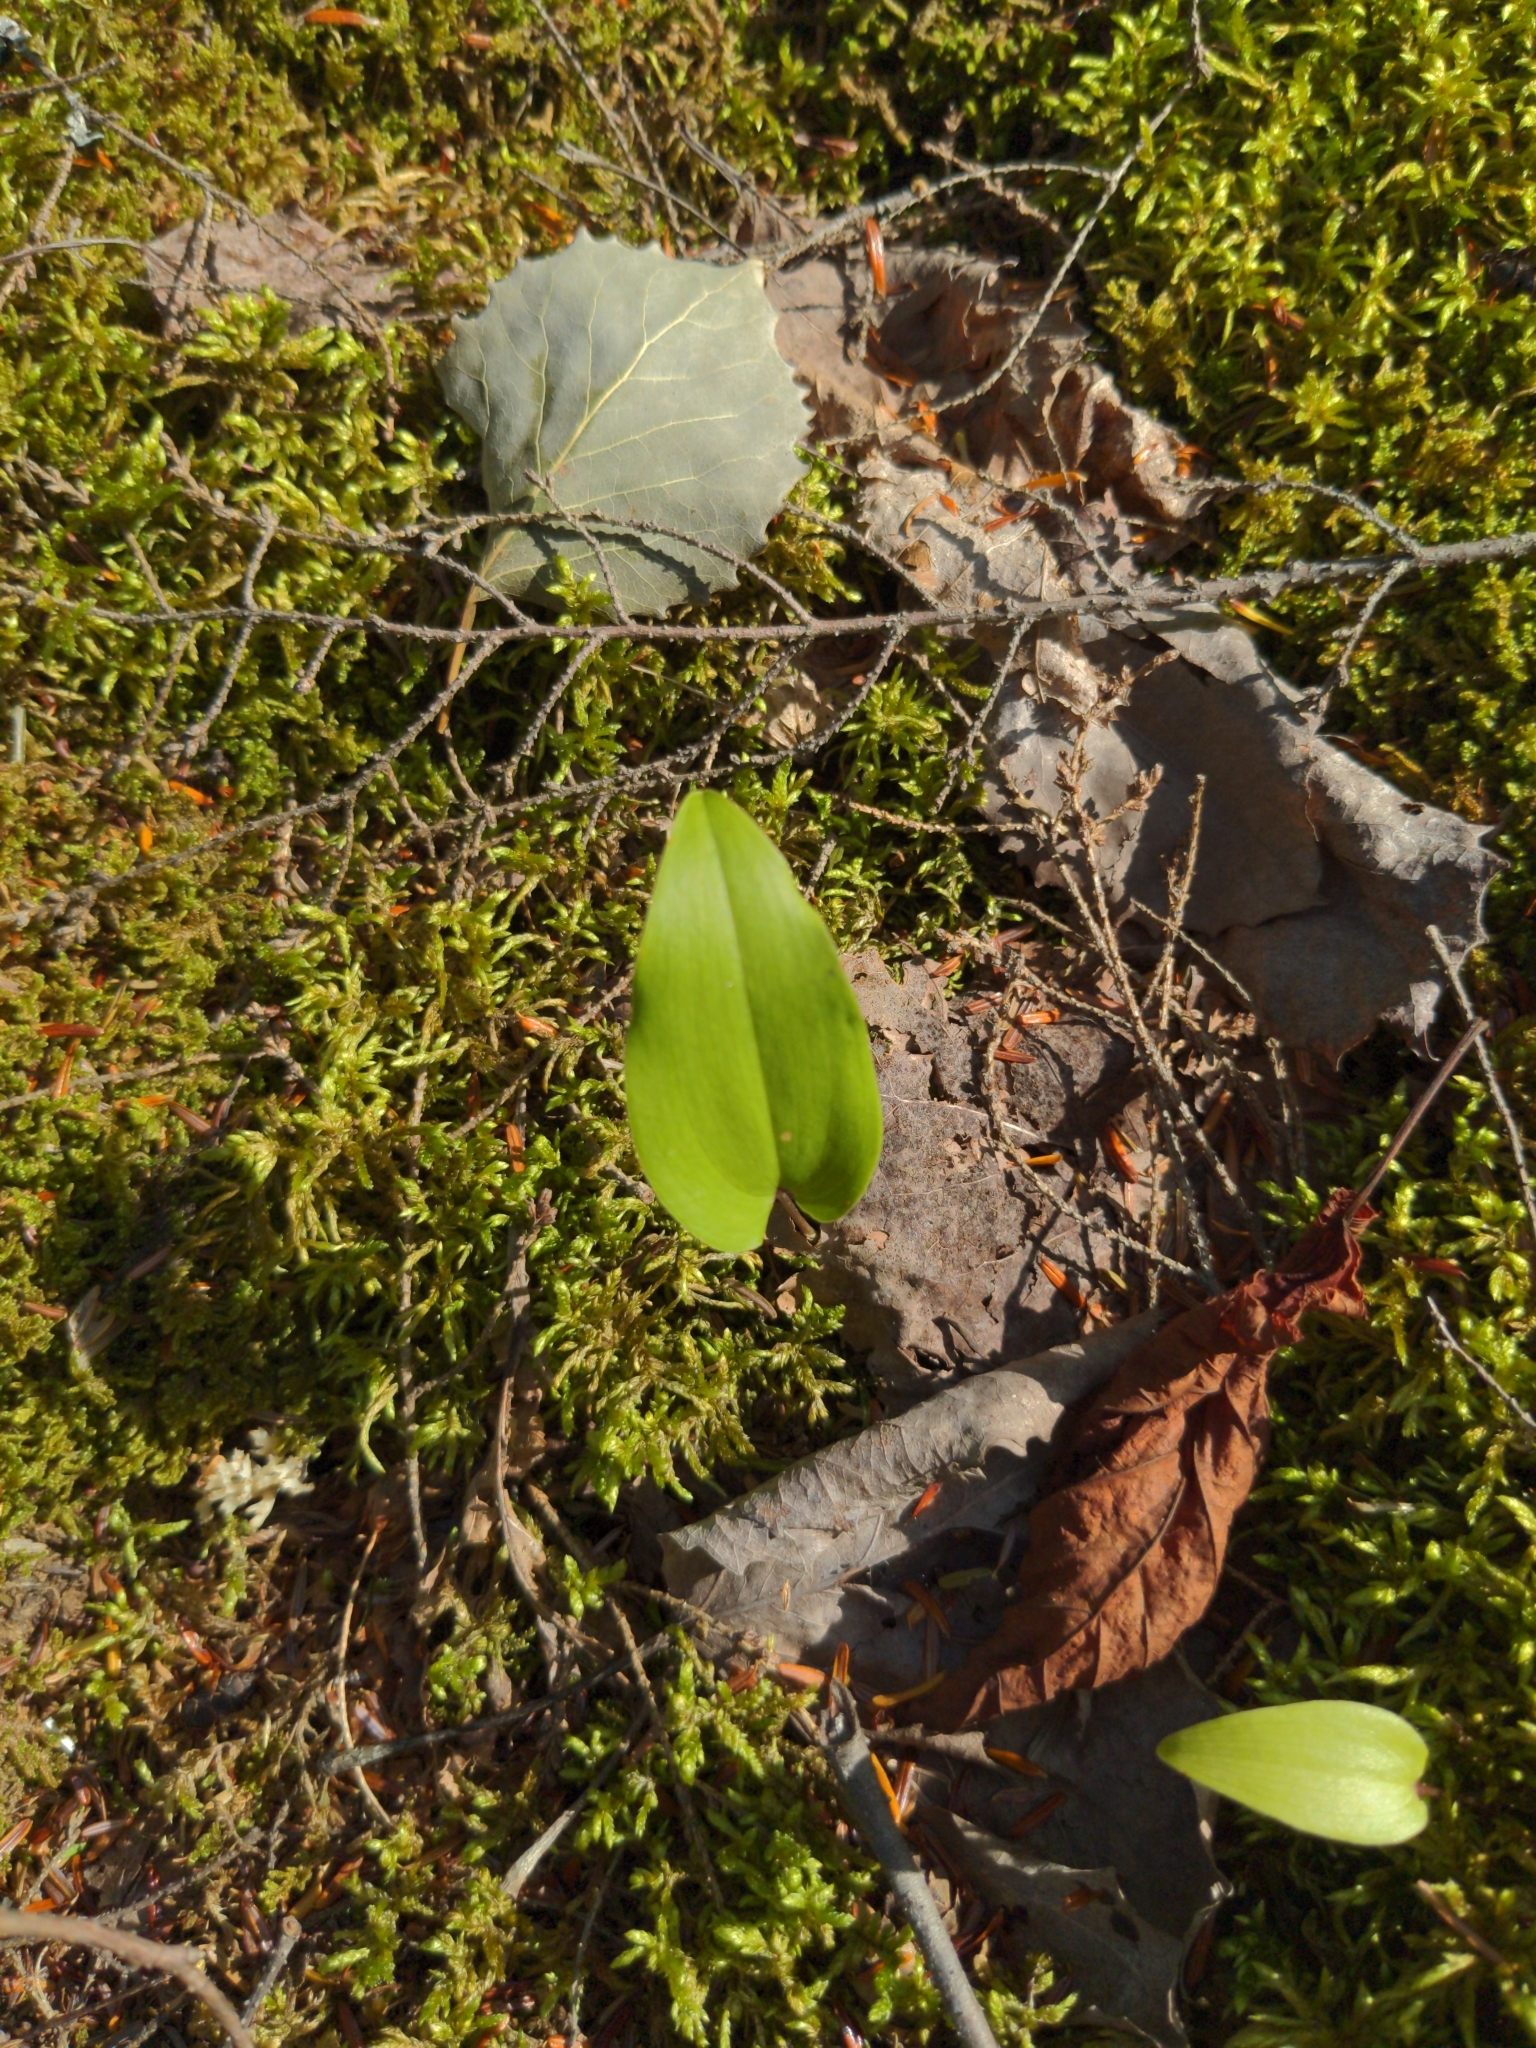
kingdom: Plantae
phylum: Tracheophyta
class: Liliopsida
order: Asparagales
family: Asparagaceae
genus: Maianthemum
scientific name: Maianthemum canadense
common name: False lily-of-the-valley
